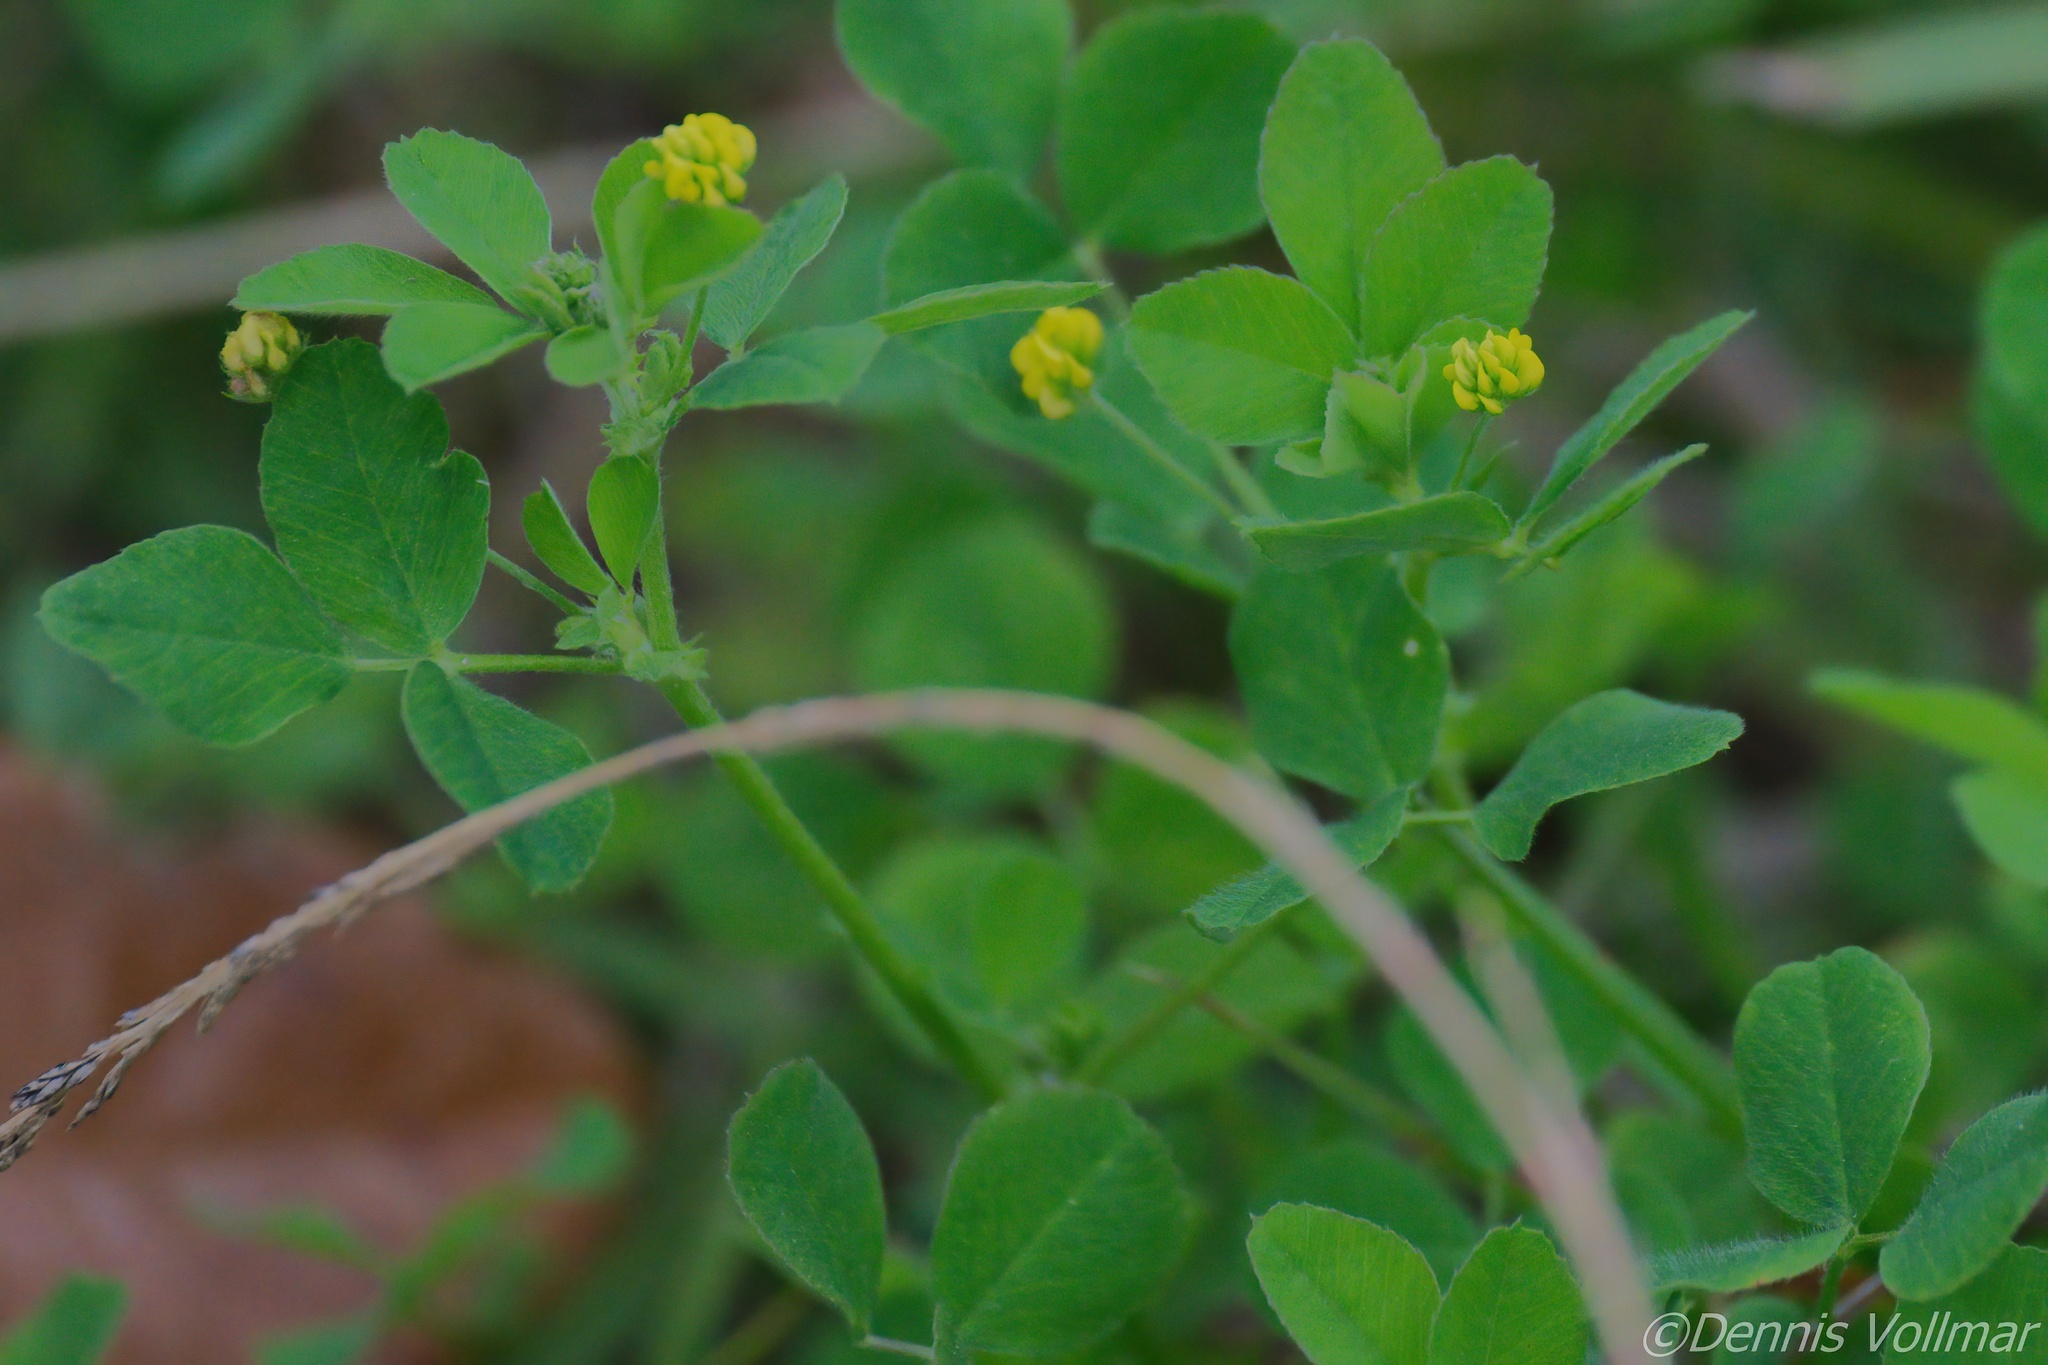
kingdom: Plantae
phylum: Tracheophyta
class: Magnoliopsida
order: Fabales
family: Fabaceae
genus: Medicago
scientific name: Medicago lupulina
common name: Black medick
